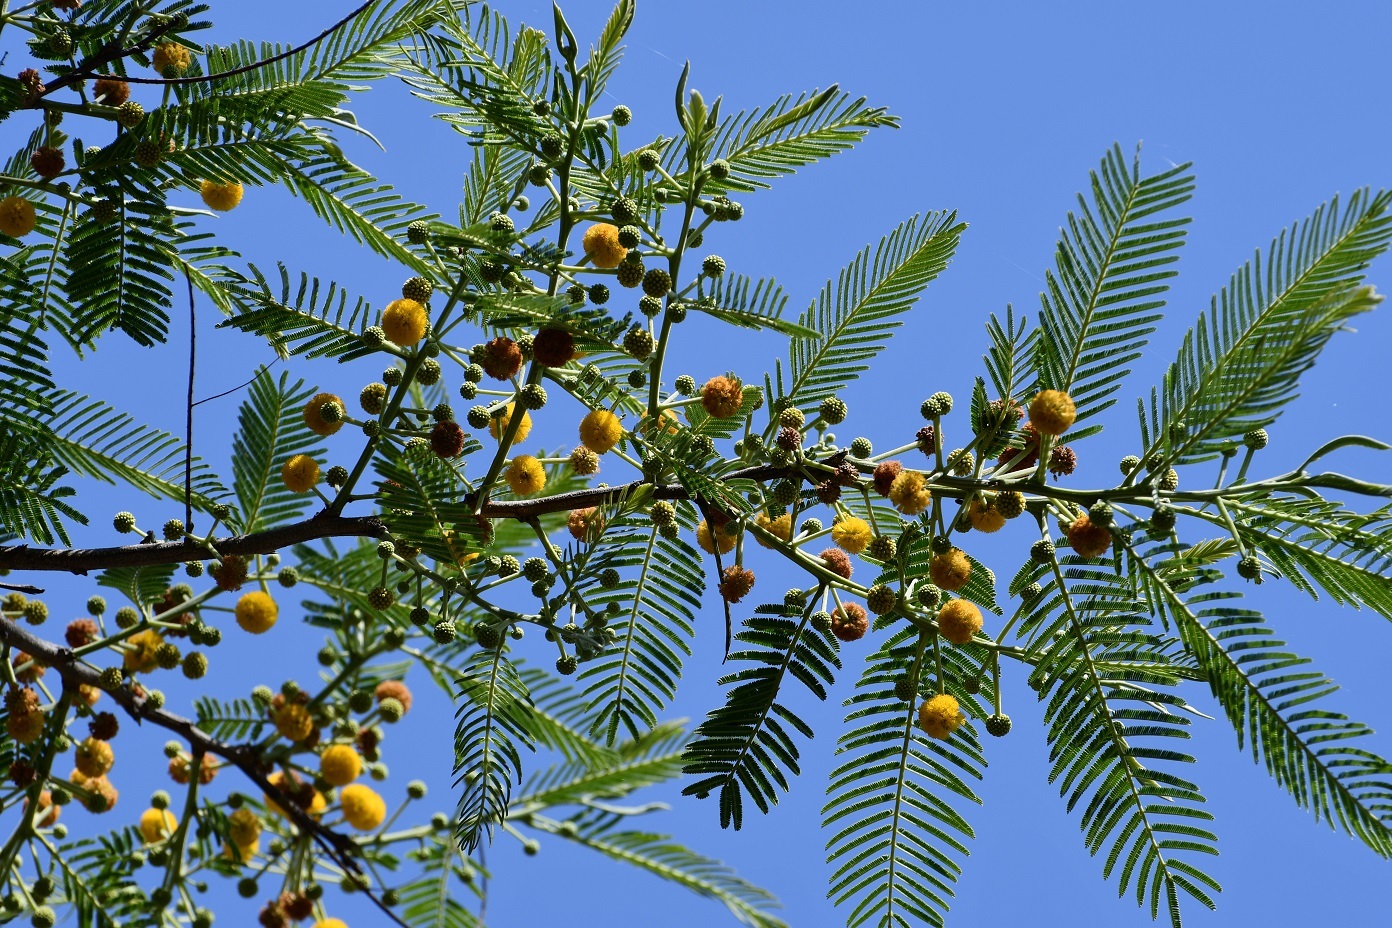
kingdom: Plantae
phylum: Tracheophyta
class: Magnoliopsida
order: Fabales
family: Fabaceae
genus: Vachellia
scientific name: Vachellia pennatula
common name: Fern-leaf acacia
